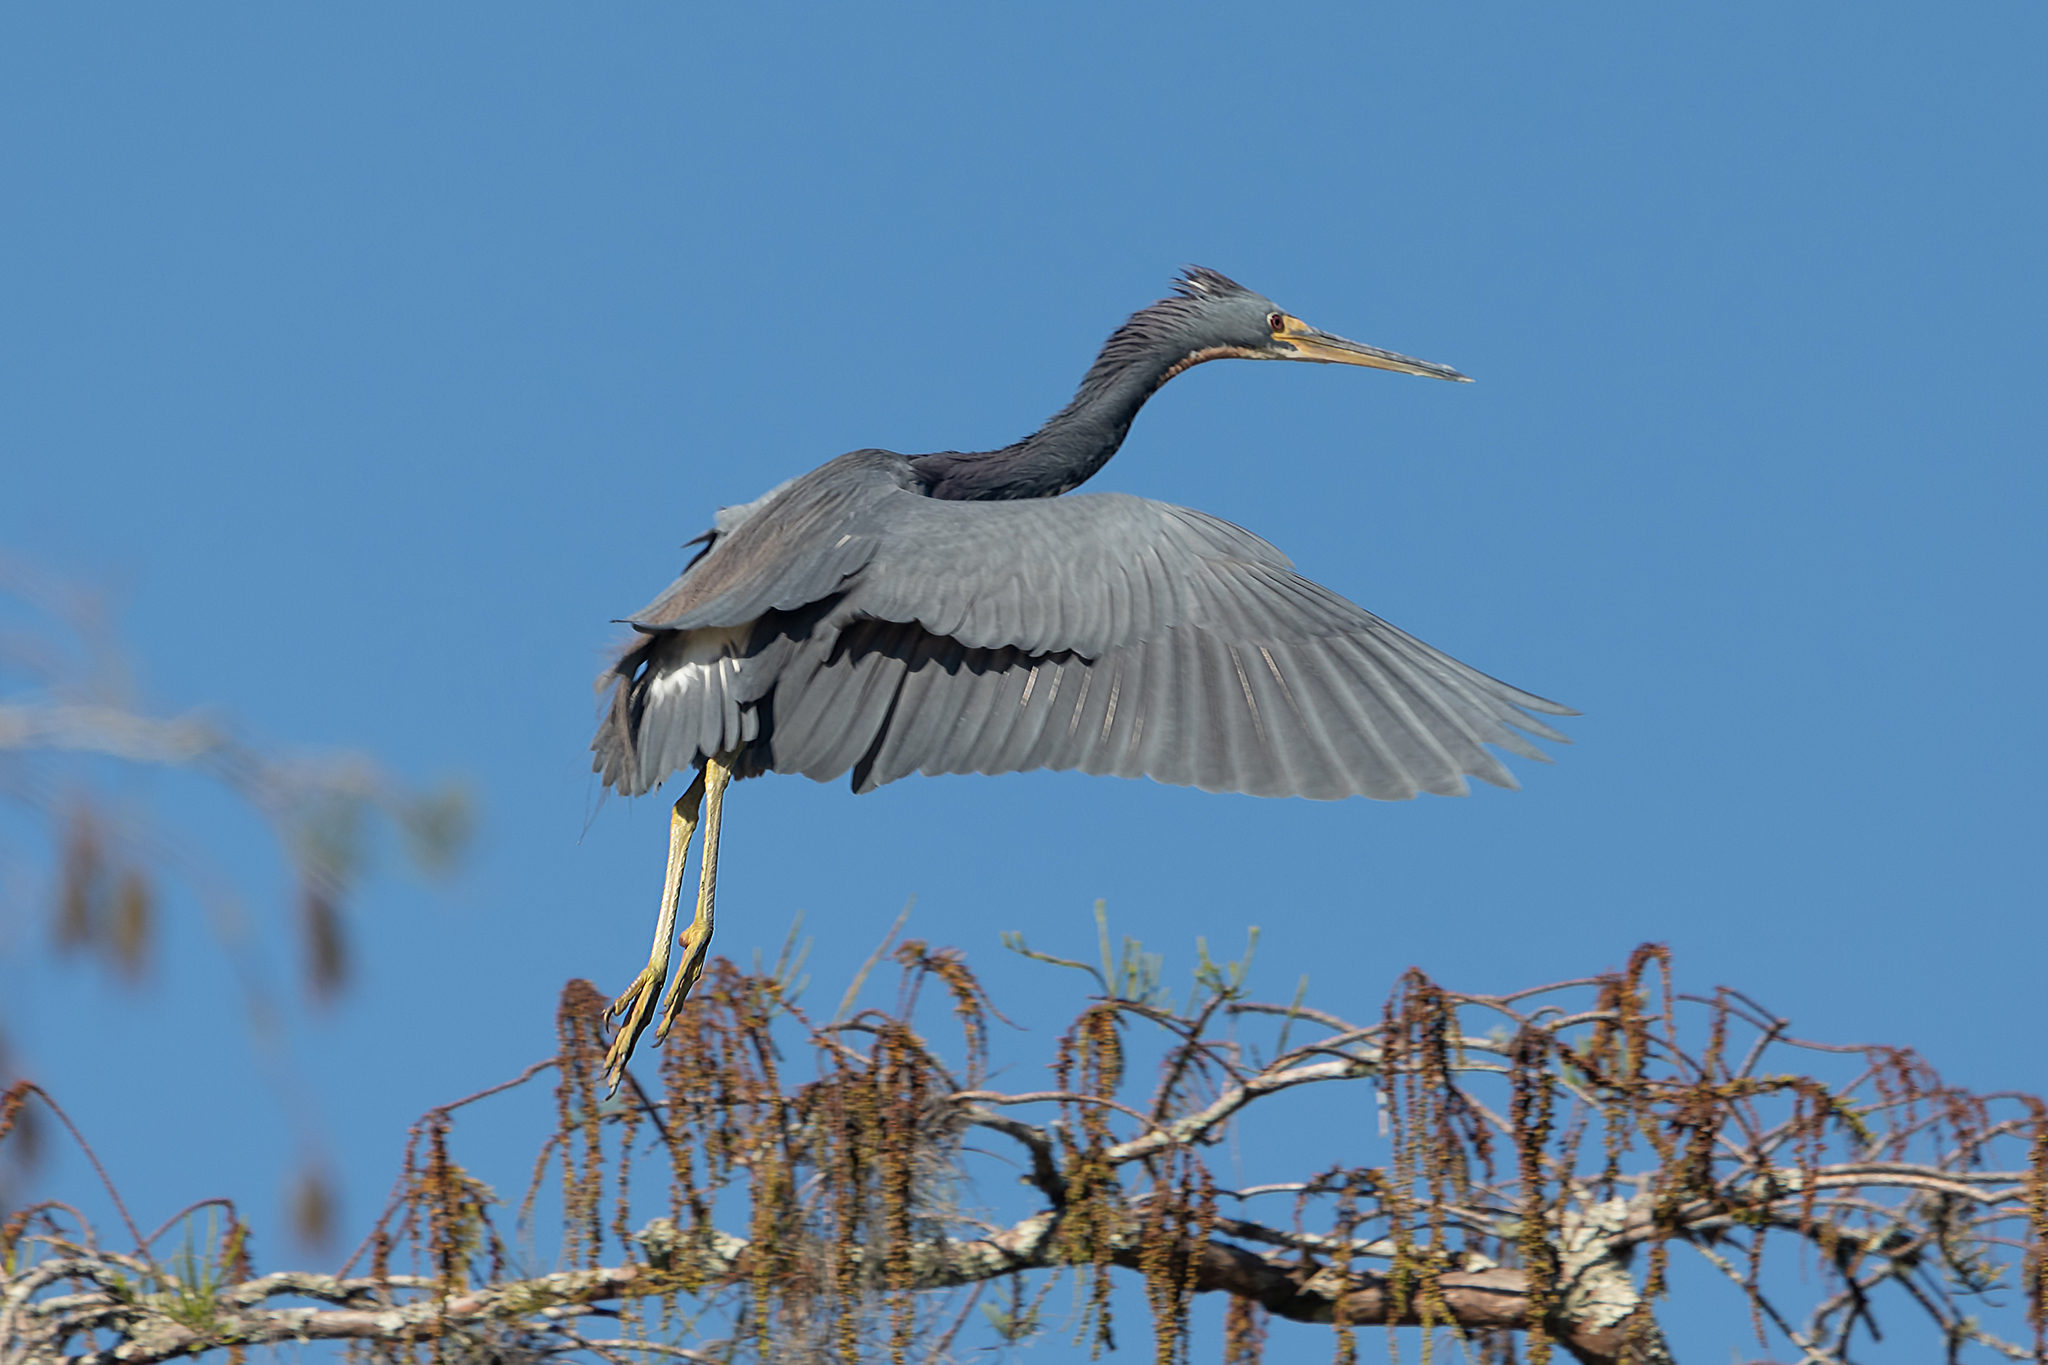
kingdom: Animalia
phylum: Chordata
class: Aves
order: Pelecaniformes
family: Ardeidae
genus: Egretta
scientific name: Egretta tricolor
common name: Tricolored heron
